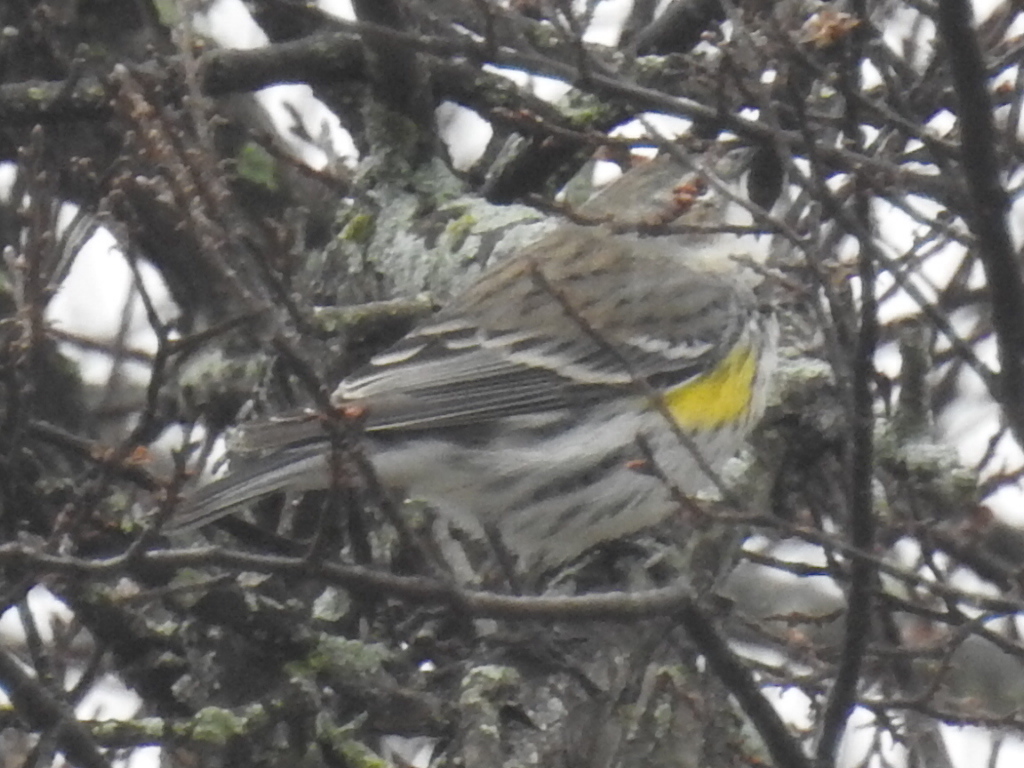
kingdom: Animalia
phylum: Chordata
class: Aves
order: Passeriformes
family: Parulidae
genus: Setophaga
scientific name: Setophaga coronata
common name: Myrtle warbler
